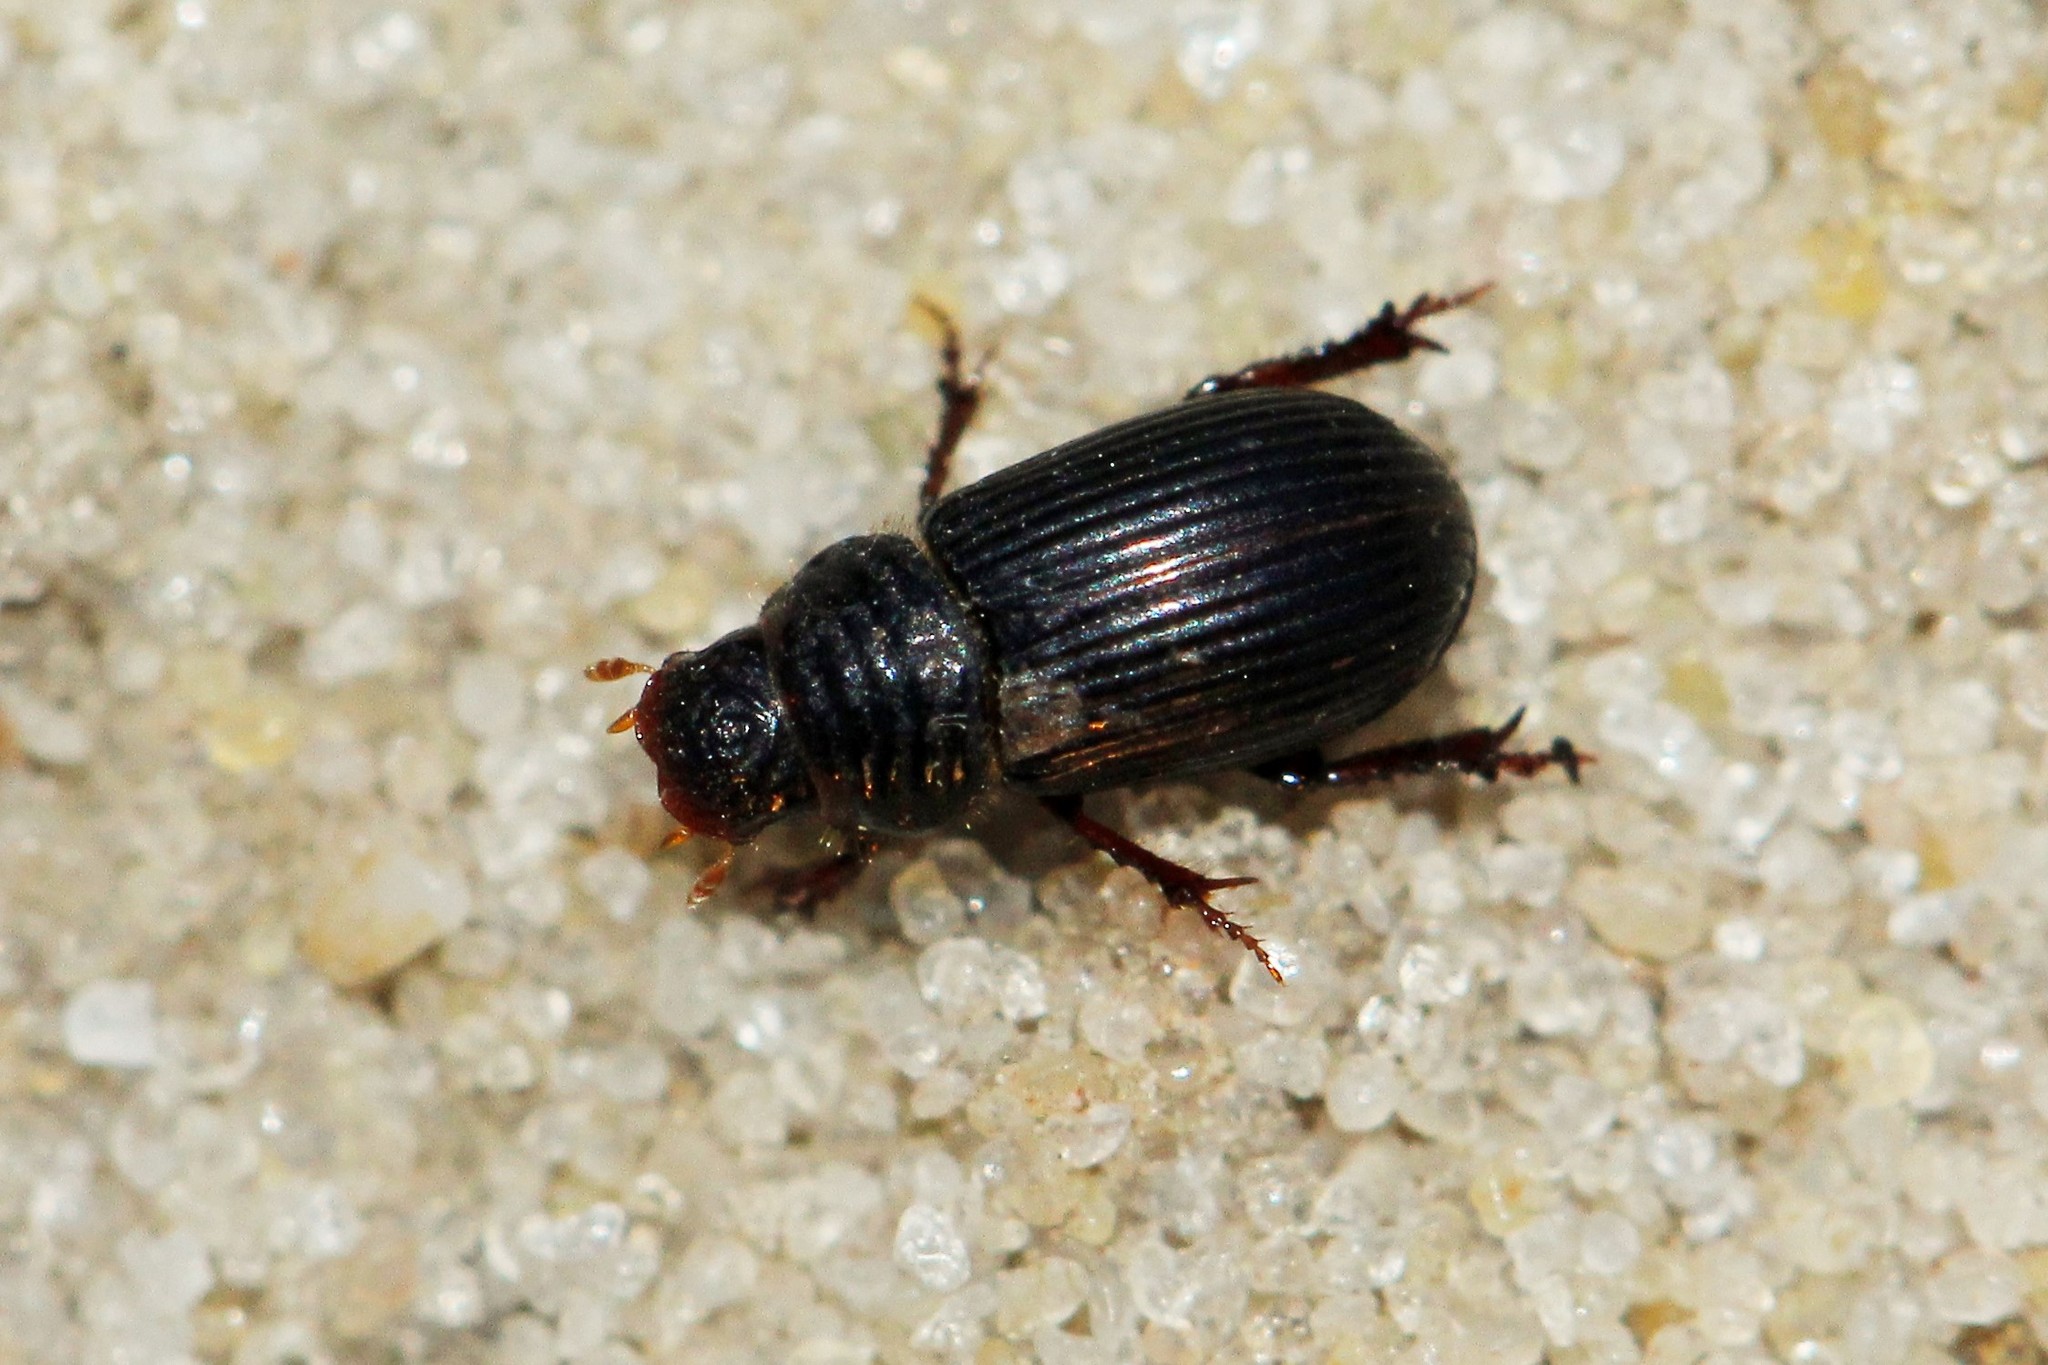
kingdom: Animalia
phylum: Arthropoda
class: Insecta
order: Coleoptera
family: Scarabaeidae
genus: Psammodius
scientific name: Psammodius laevipennis
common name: Awkward-winged small dung beetle
